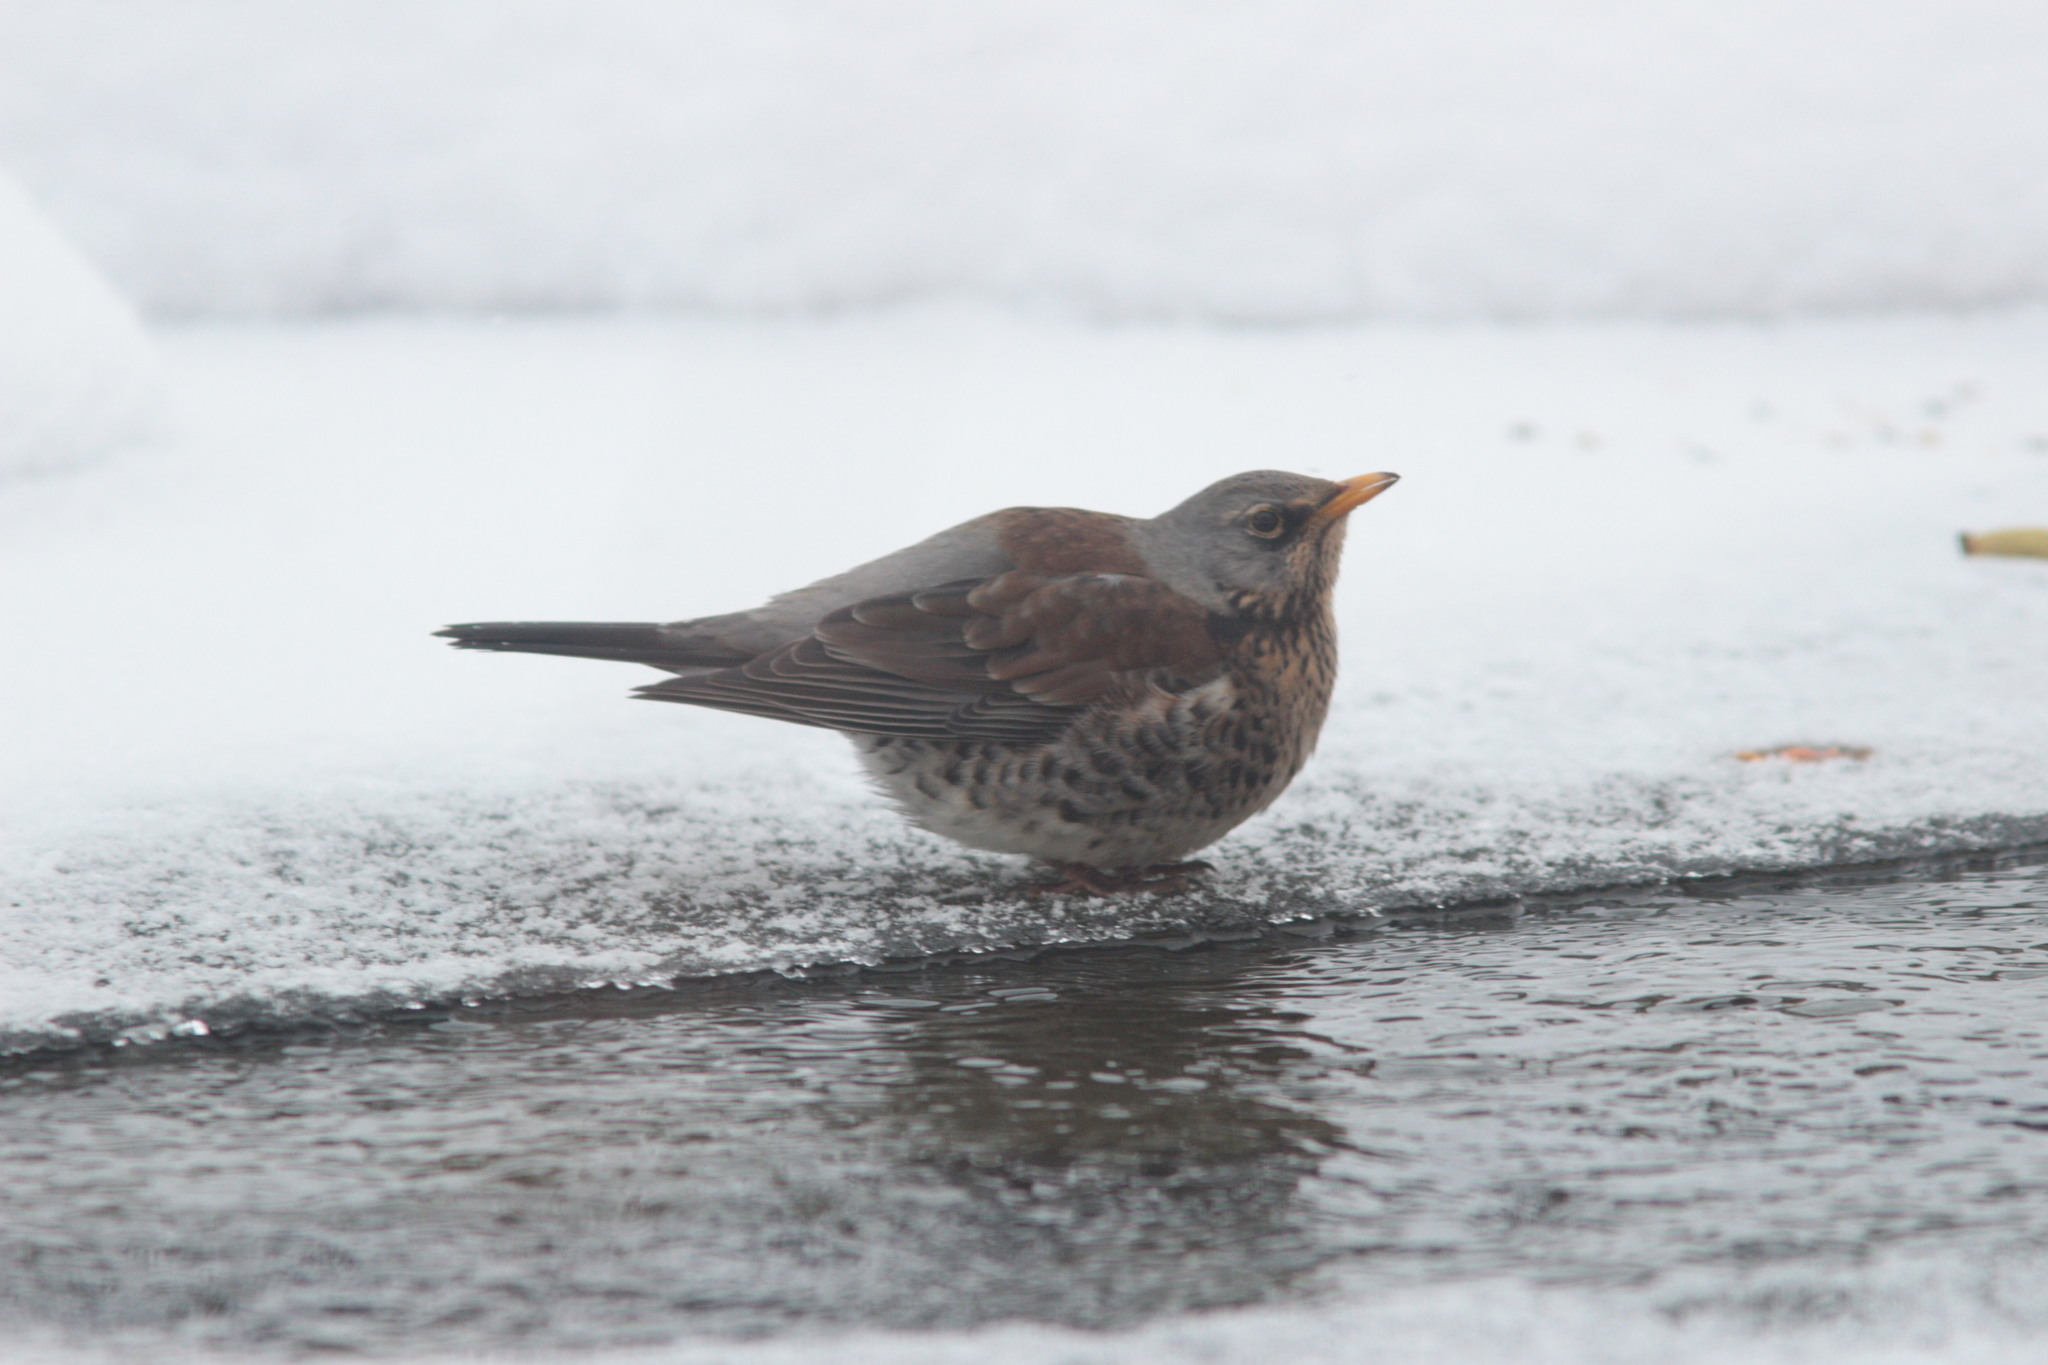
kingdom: Animalia
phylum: Chordata
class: Aves
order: Passeriformes
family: Turdidae
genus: Turdus
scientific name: Turdus pilaris
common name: Fieldfare
